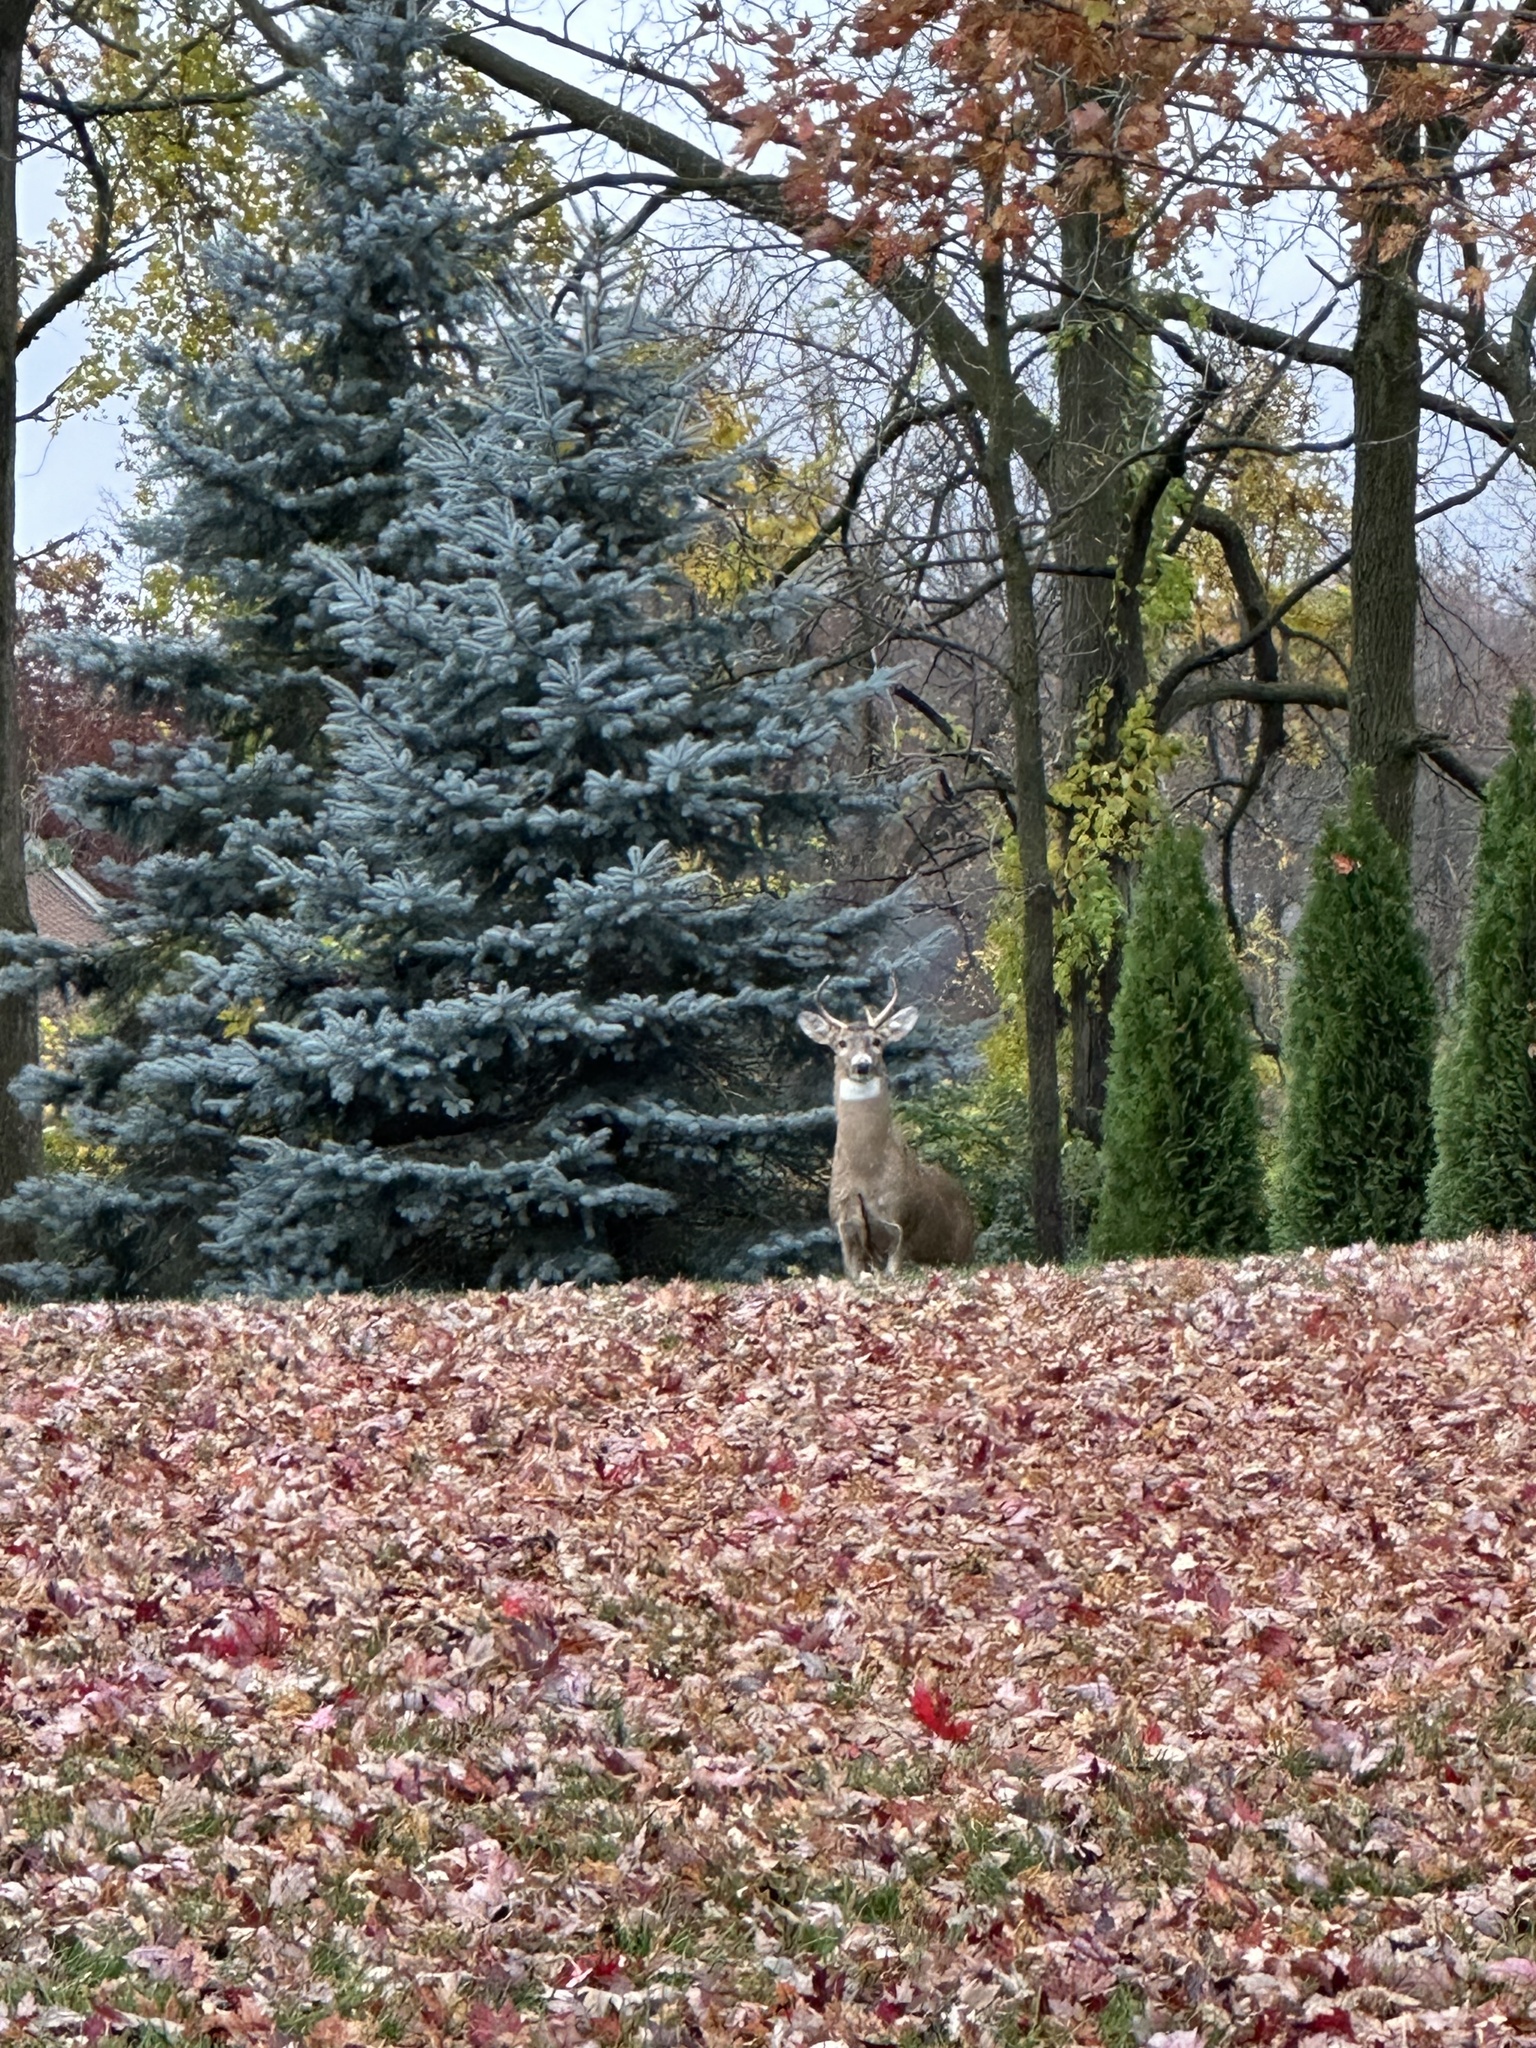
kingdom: Animalia
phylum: Chordata
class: Mammalia
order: Artiodactyla
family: Cervidae
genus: Odocoileus
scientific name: Odocoileus virginianus
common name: White-tailed deer
